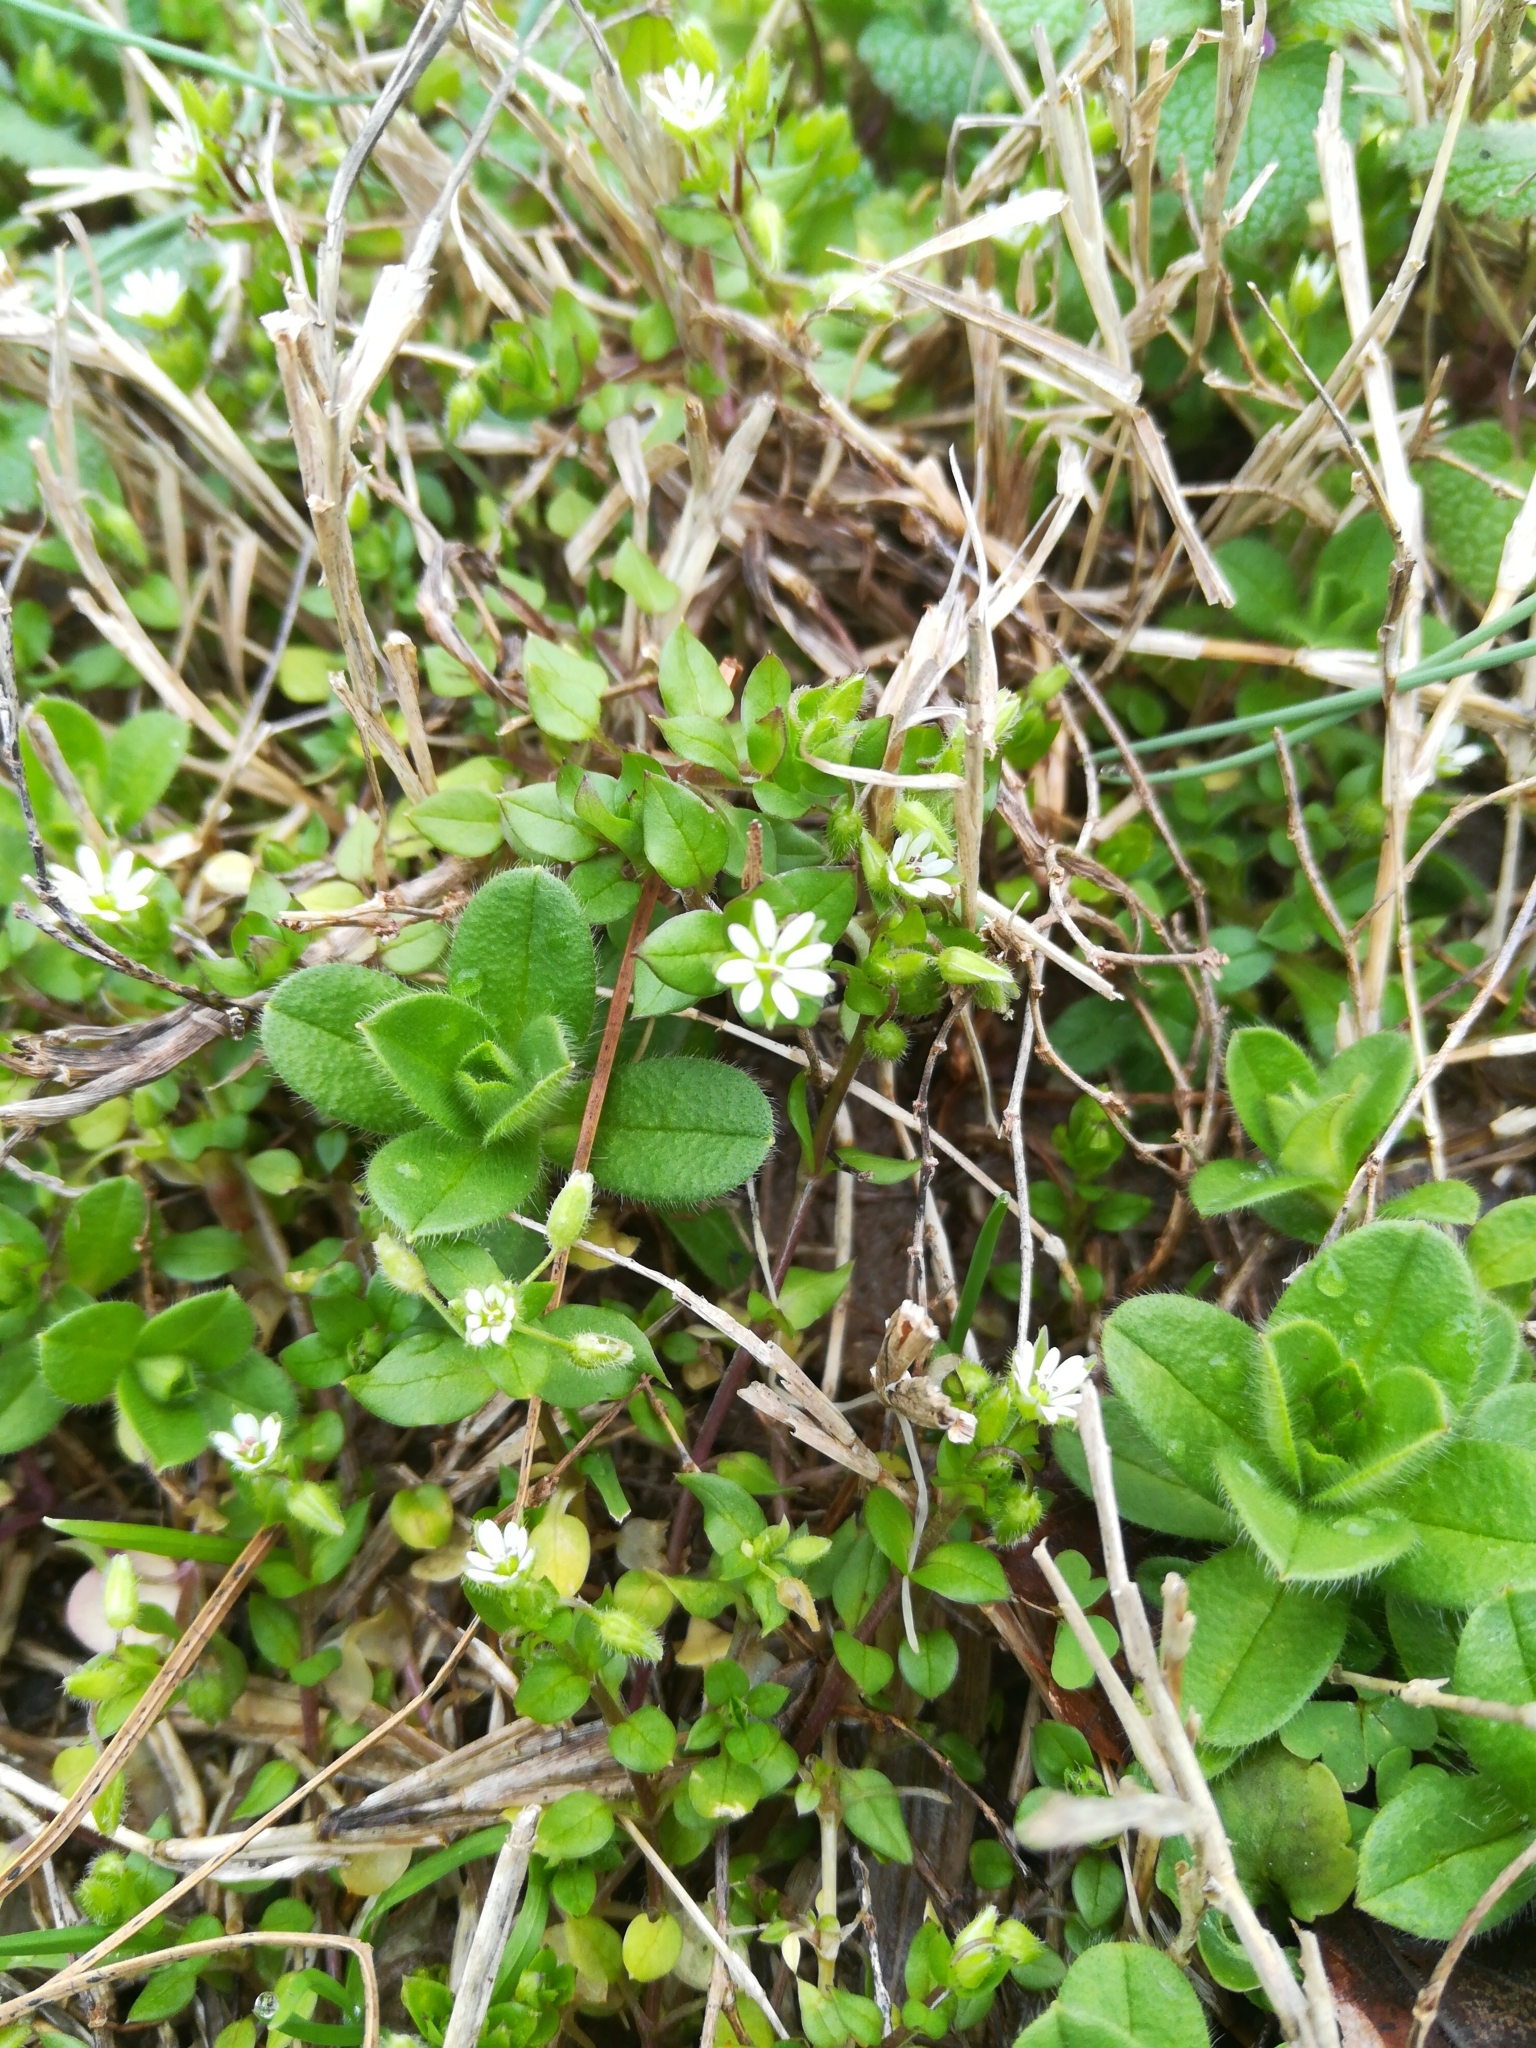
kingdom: Plantae
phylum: Tracheophyta
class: Magnoliopsida
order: Caryophyllales
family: Caryophyllaceae
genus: Stellaria
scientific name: Stellaria media
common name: Common chickweed
